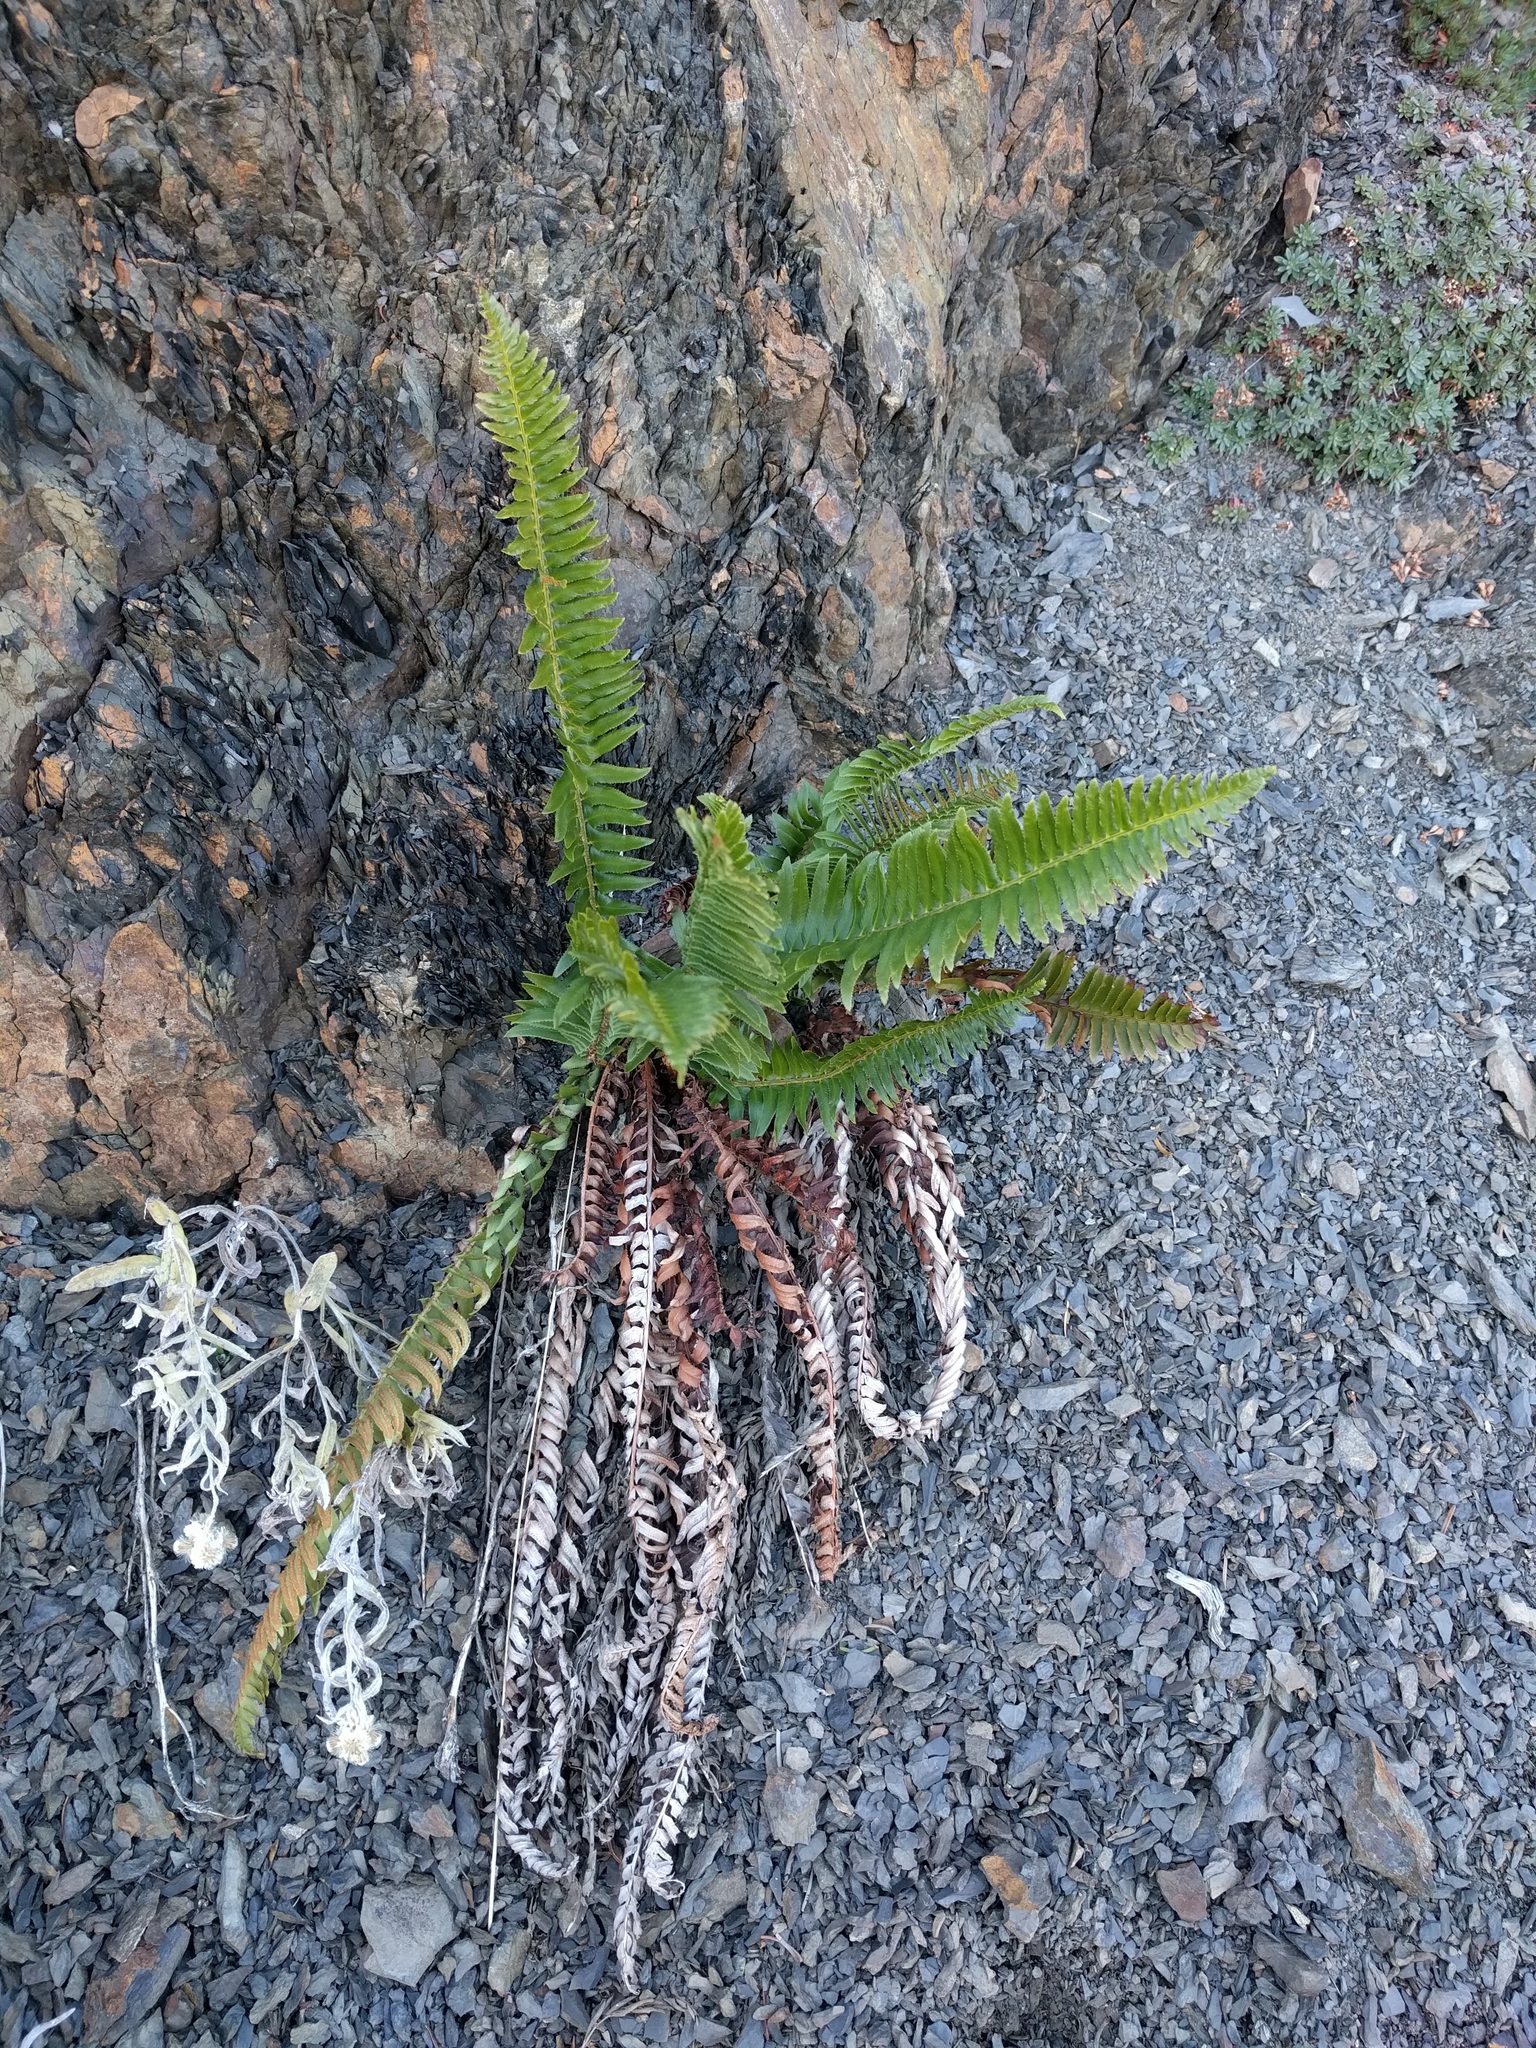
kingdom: Plantae
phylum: Tracheophyta
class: Polypodiopsida
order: Polypodiales
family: Dryopteridaceae
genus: Polystichum
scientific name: Polystichum munitum
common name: Western sword-fern
